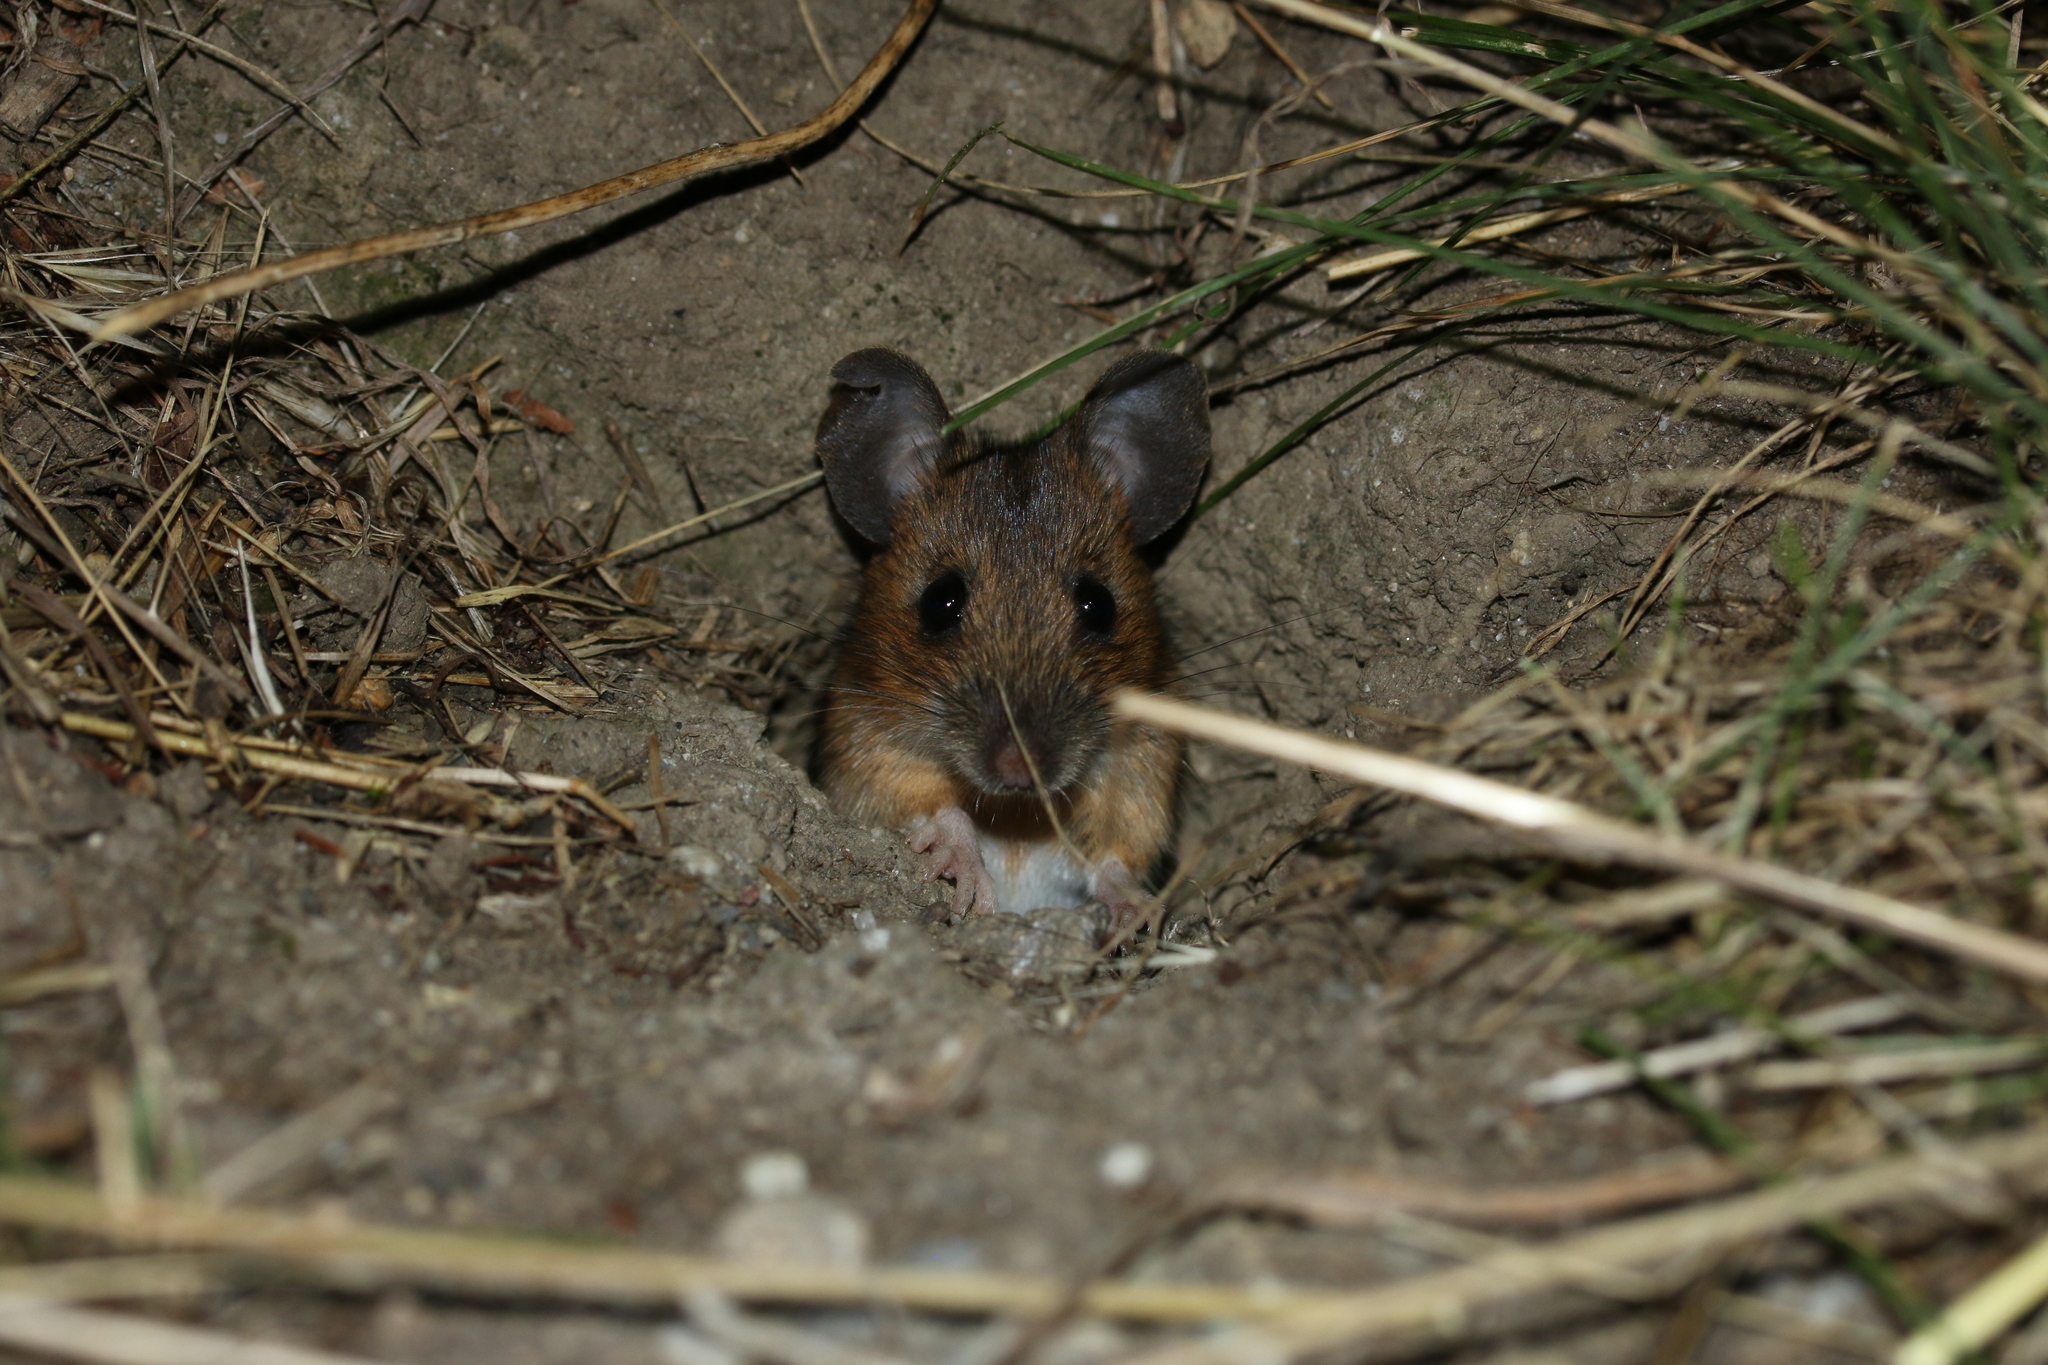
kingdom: Animalia
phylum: Chordata
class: Mammalia
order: Rodentia
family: Muridae
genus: Apodemus
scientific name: Apodemus flavicollis
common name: Yellow-necked field mouse
